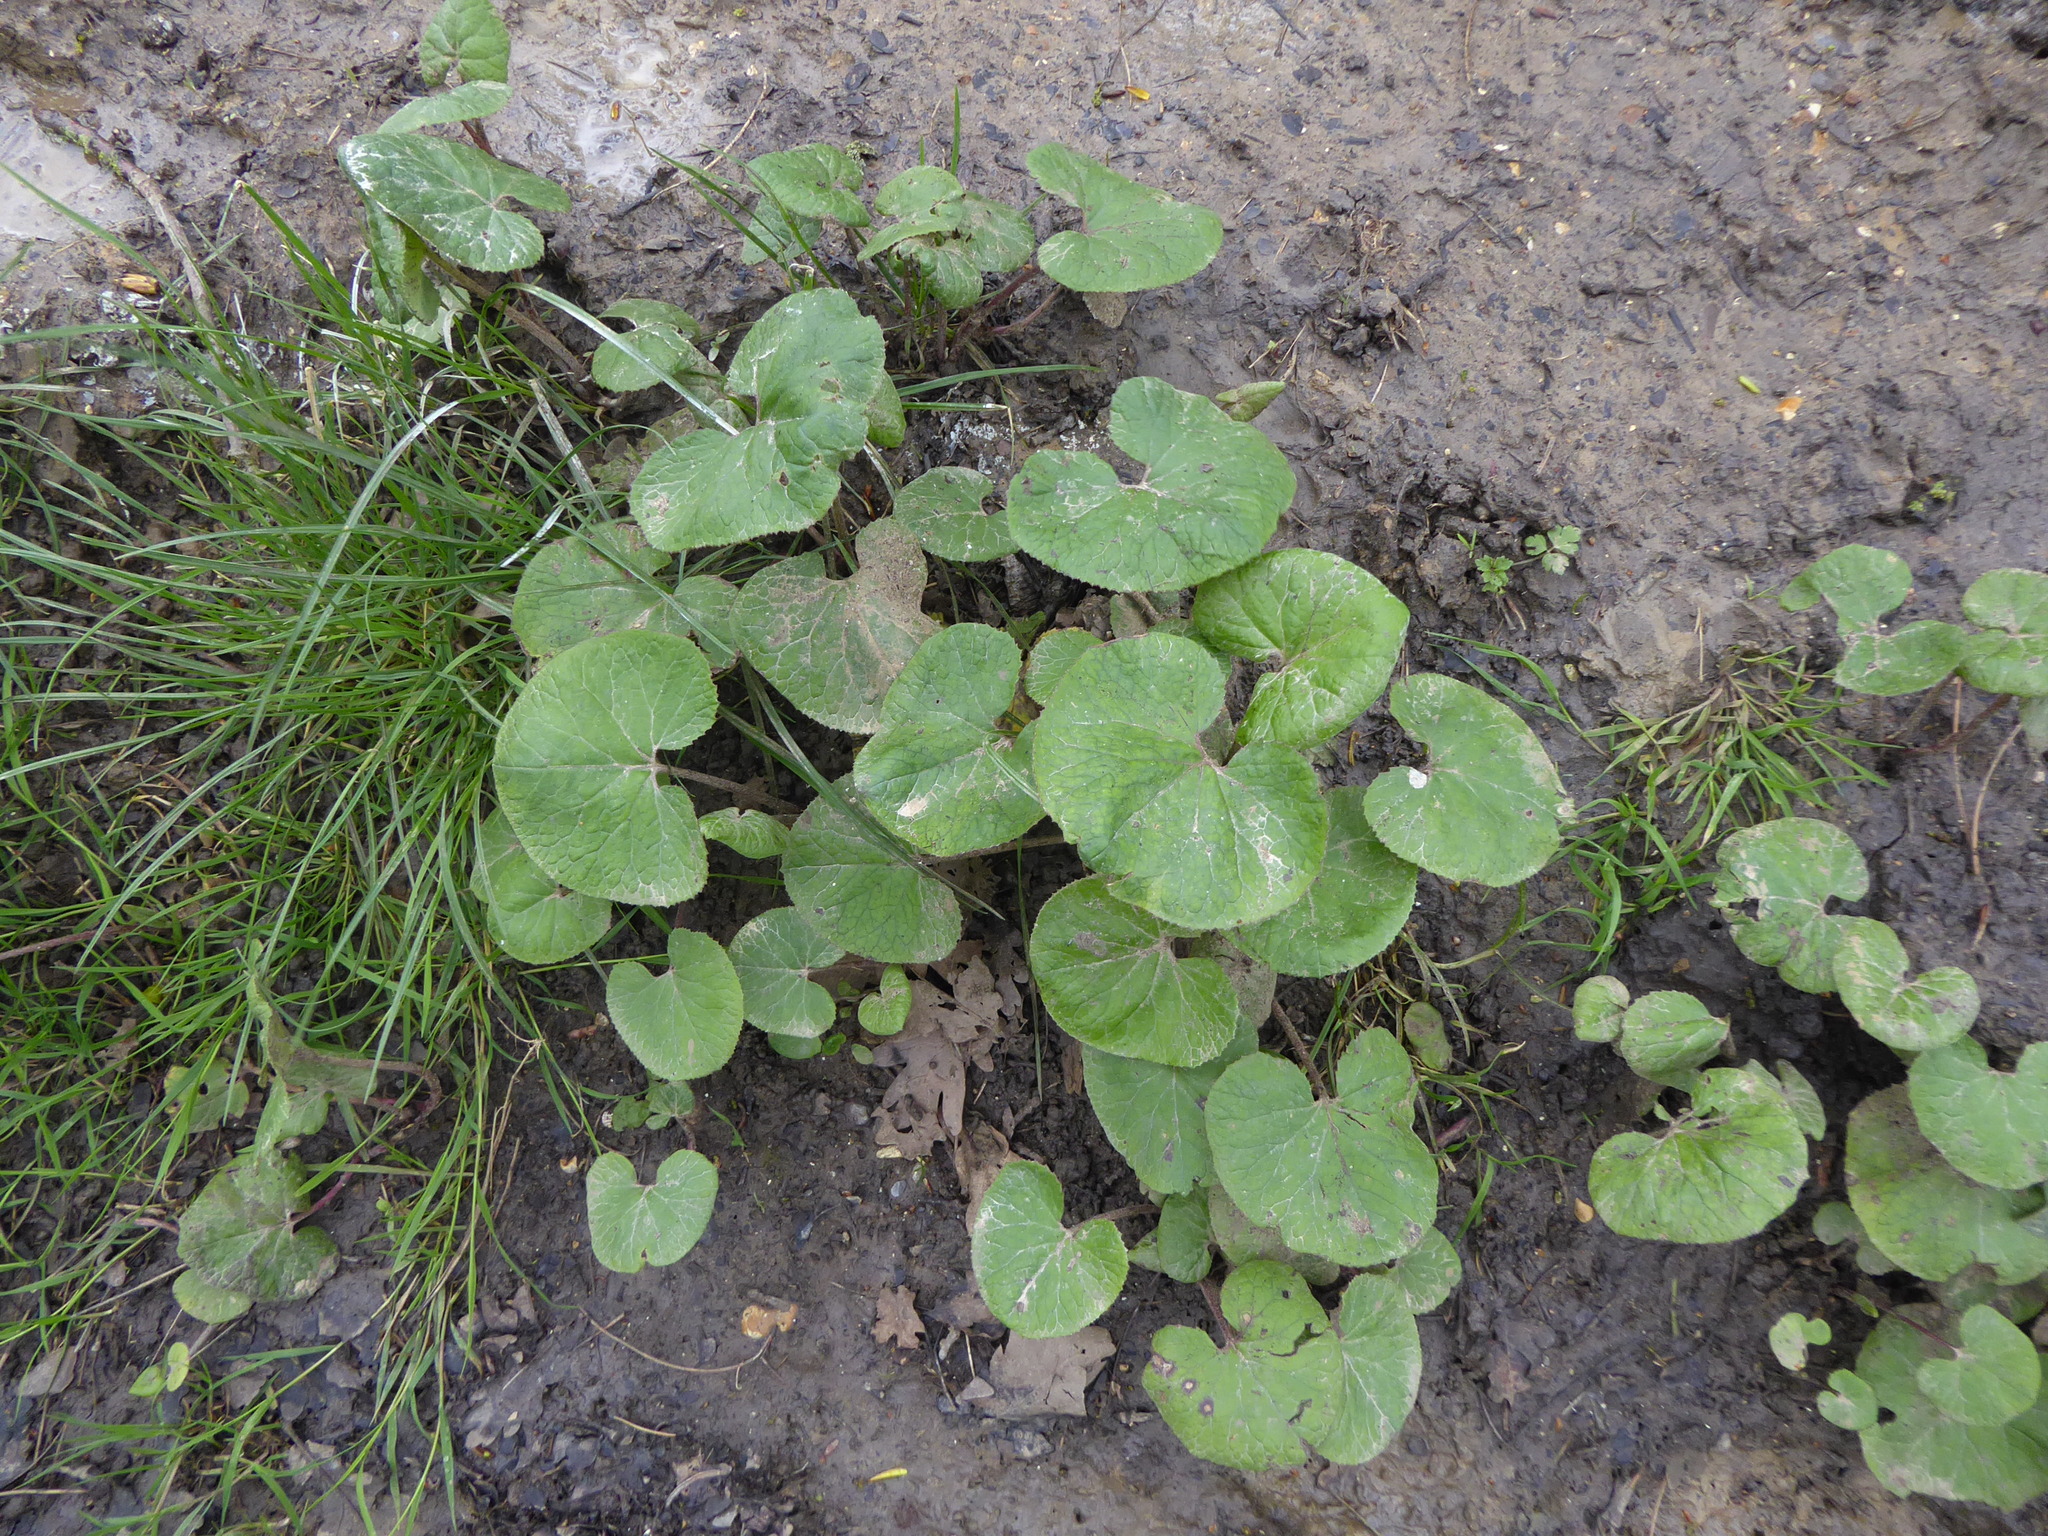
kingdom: Plantae
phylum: Tracheophyta
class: Magnoliopsida
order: Asterales
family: Asteraceae
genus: Petasites
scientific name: Petasites pyrenaicus
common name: Winter heliotrope
